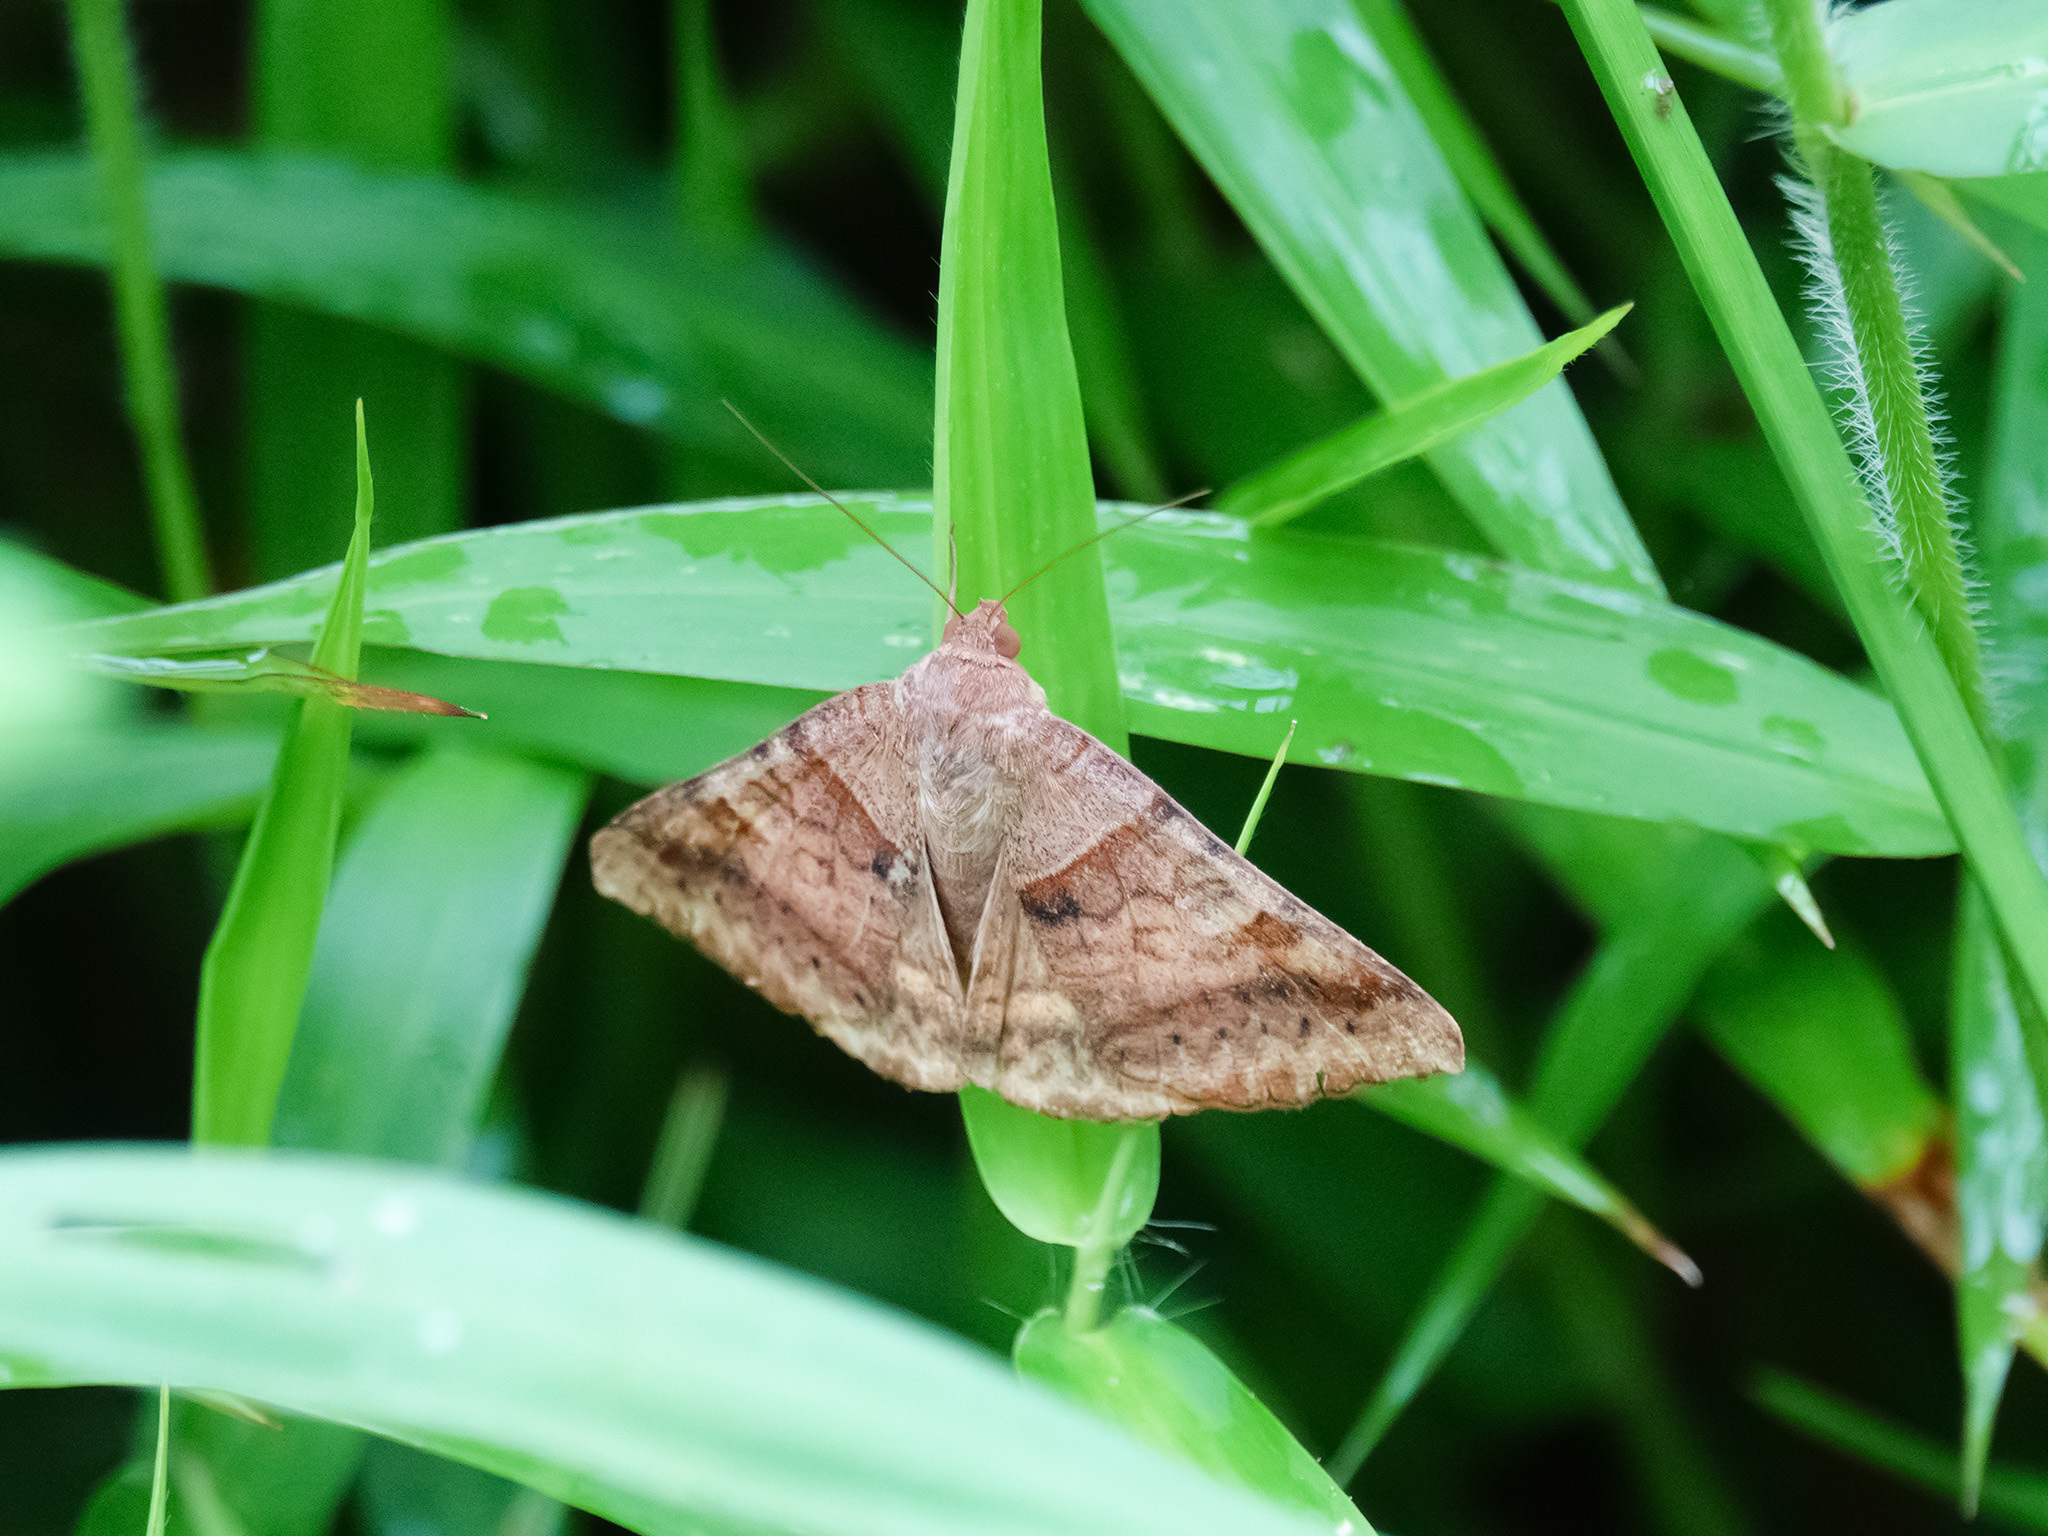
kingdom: Animalia
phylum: Arthropoda
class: Insecta
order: Lepidoptera
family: Erebidae
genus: Mocis
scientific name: Mocis undata
